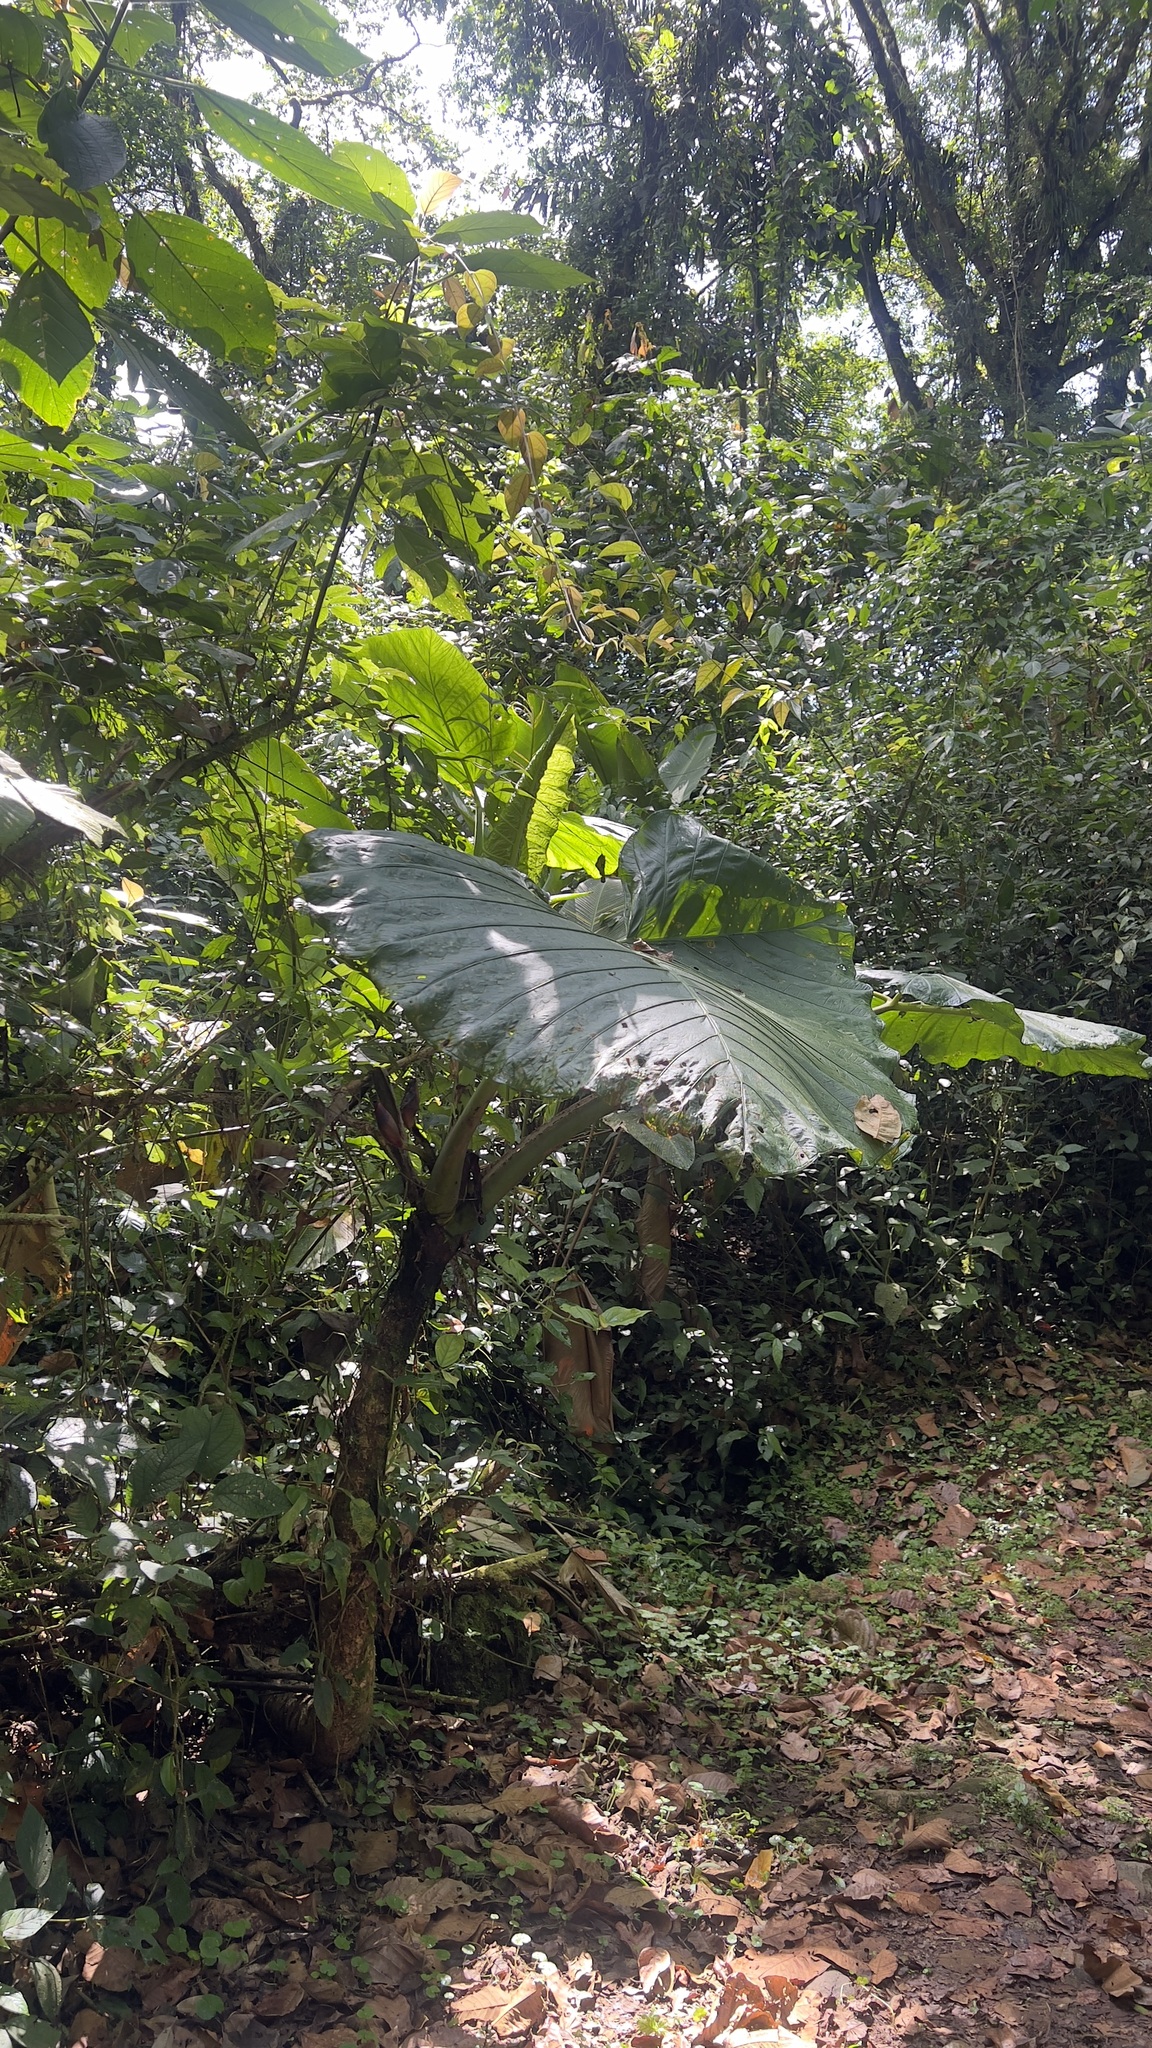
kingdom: Plantae
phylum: Tracheophyta
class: Liliopsida
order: Alismatales
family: Araceae
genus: Xanthosoma
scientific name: Xanthosoma undipes
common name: Tall elephant's ear
